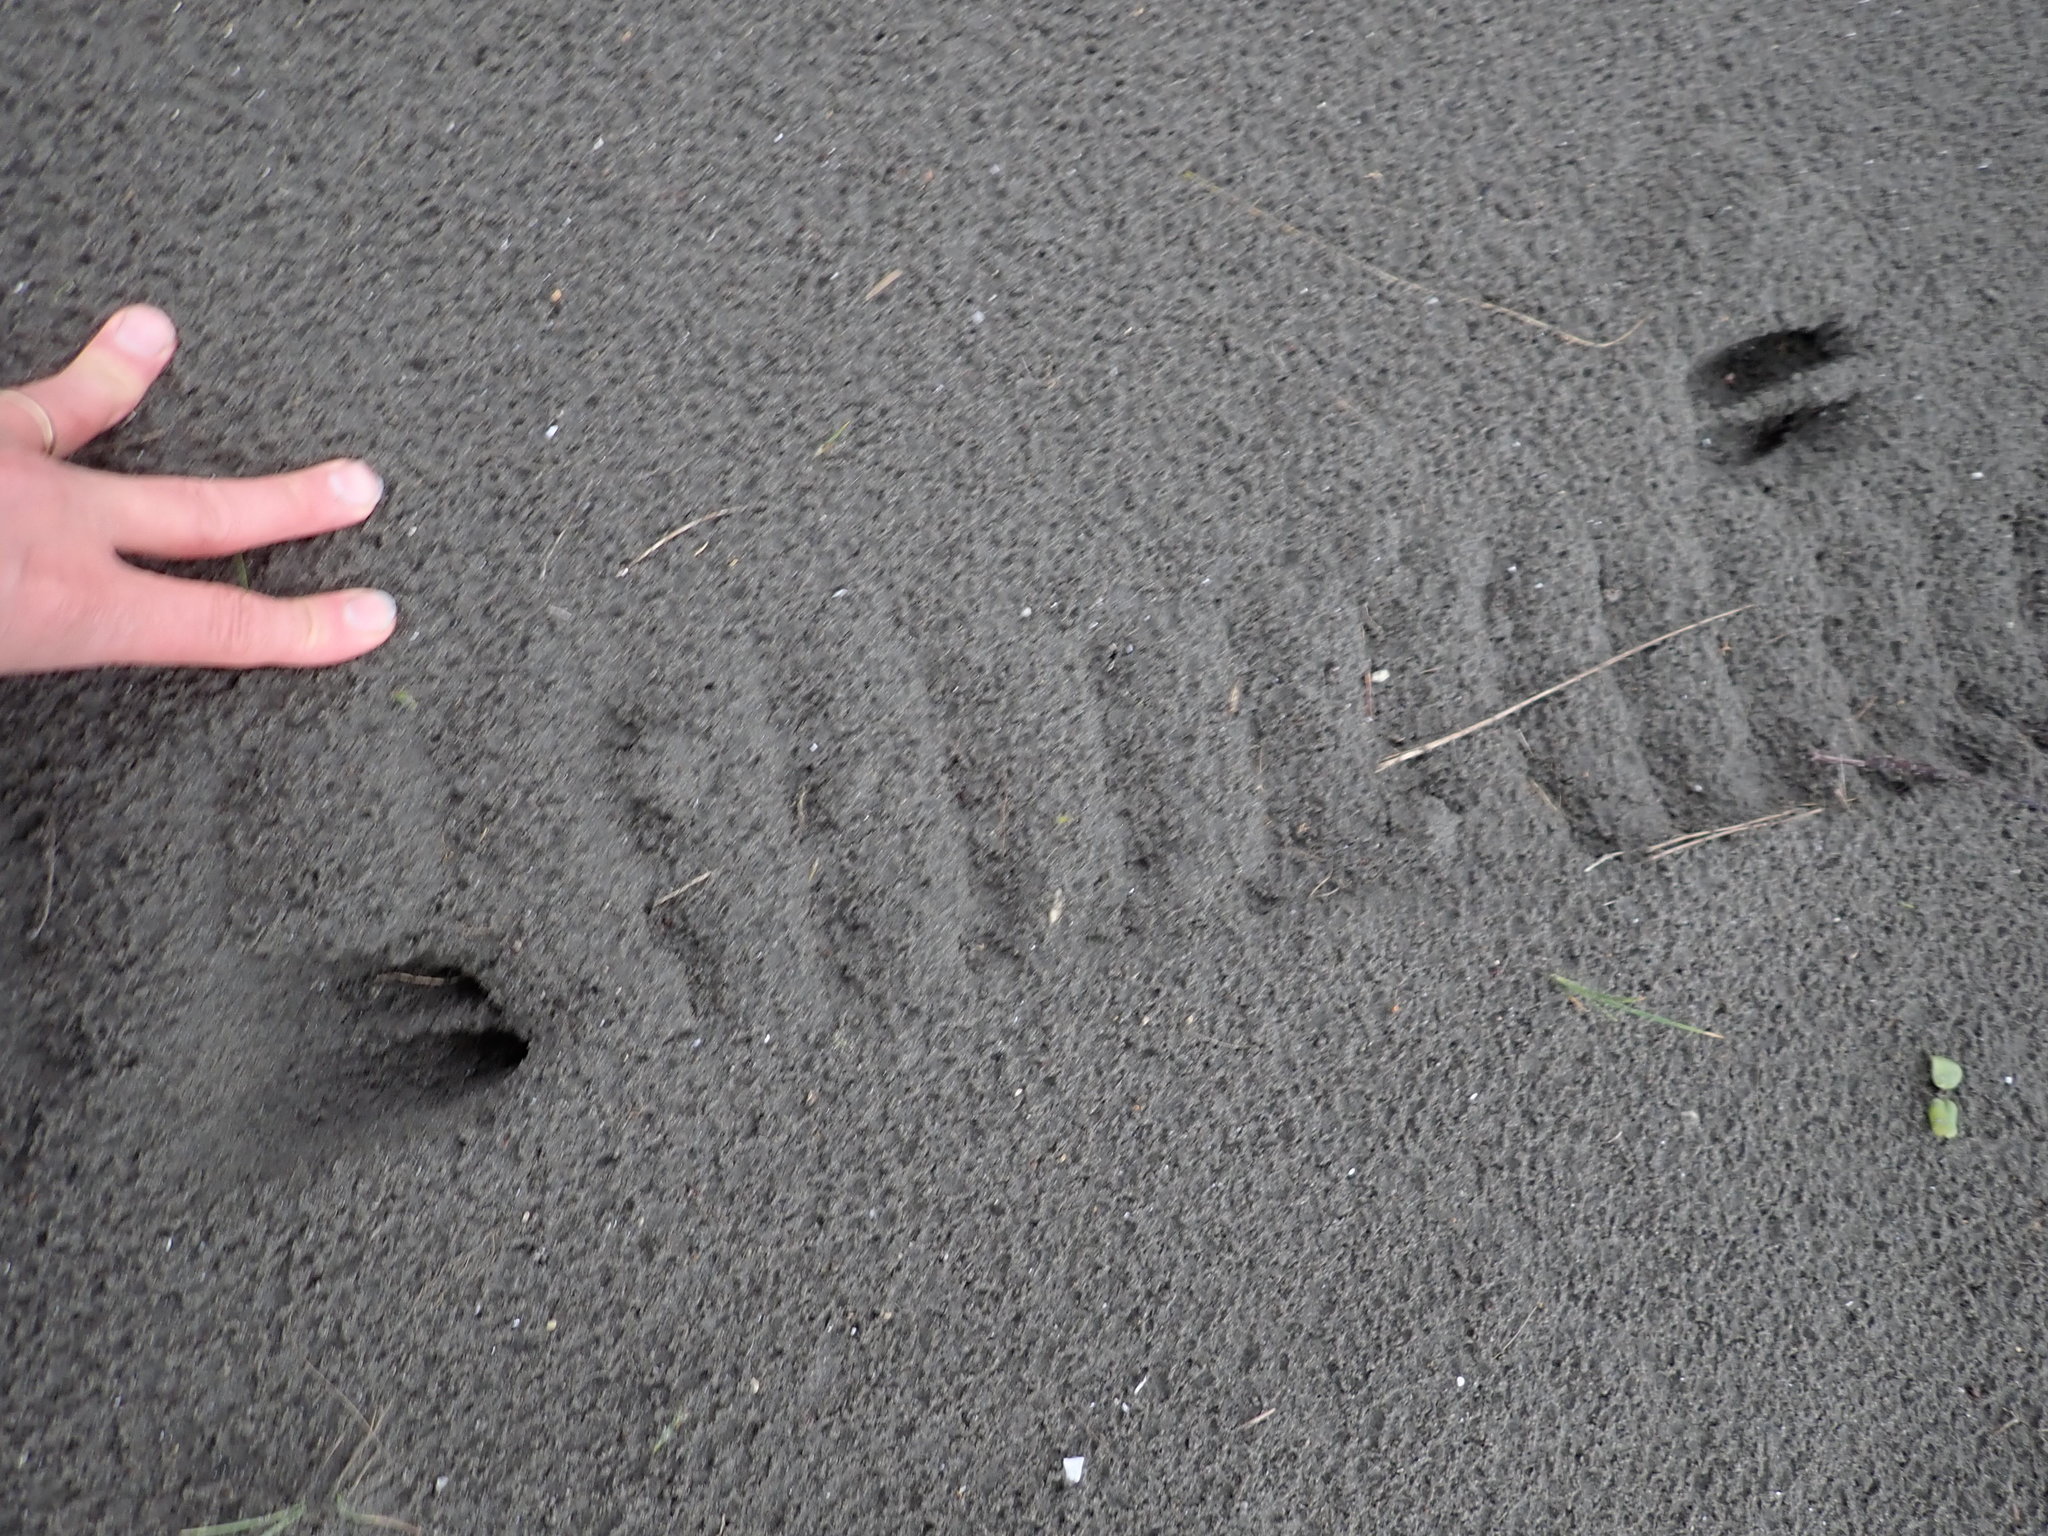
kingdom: Animalia
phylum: Chordata
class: Mammalia
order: Artiodactyla
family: Cervidae
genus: Rusa
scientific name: Rusa unicolor
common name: Sambar
